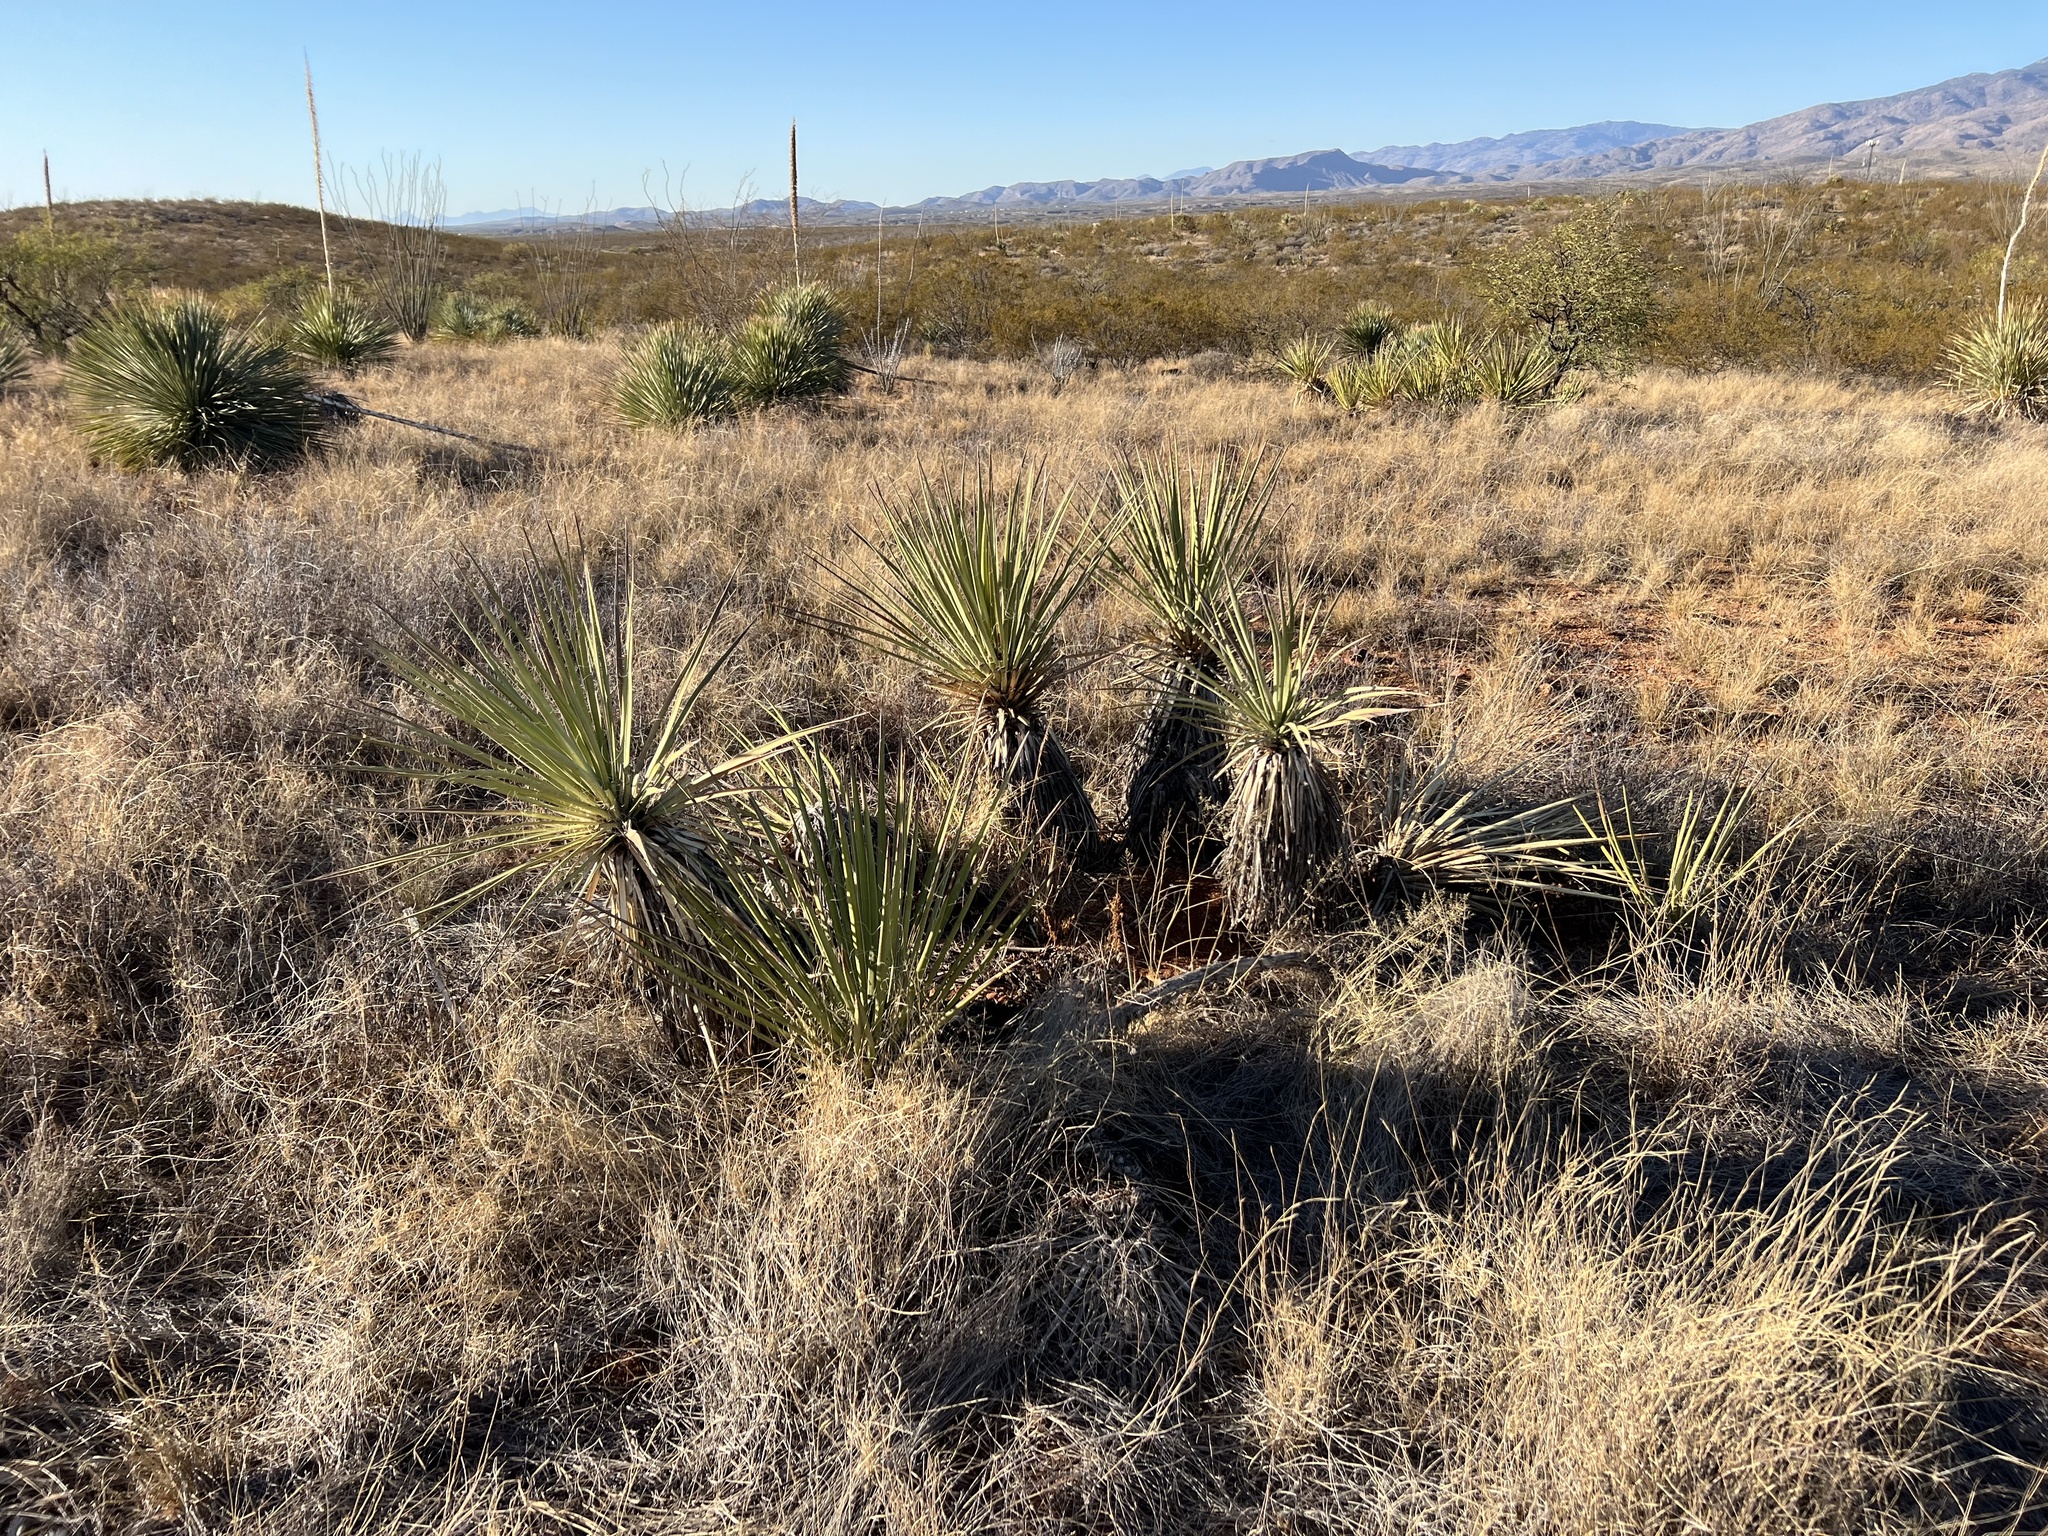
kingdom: Plantae
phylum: Tracheophyta
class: Liliopsida
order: Asparagales
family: Asparagaceae
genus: Yucca
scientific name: Yucca baccata
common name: Banana yucca
